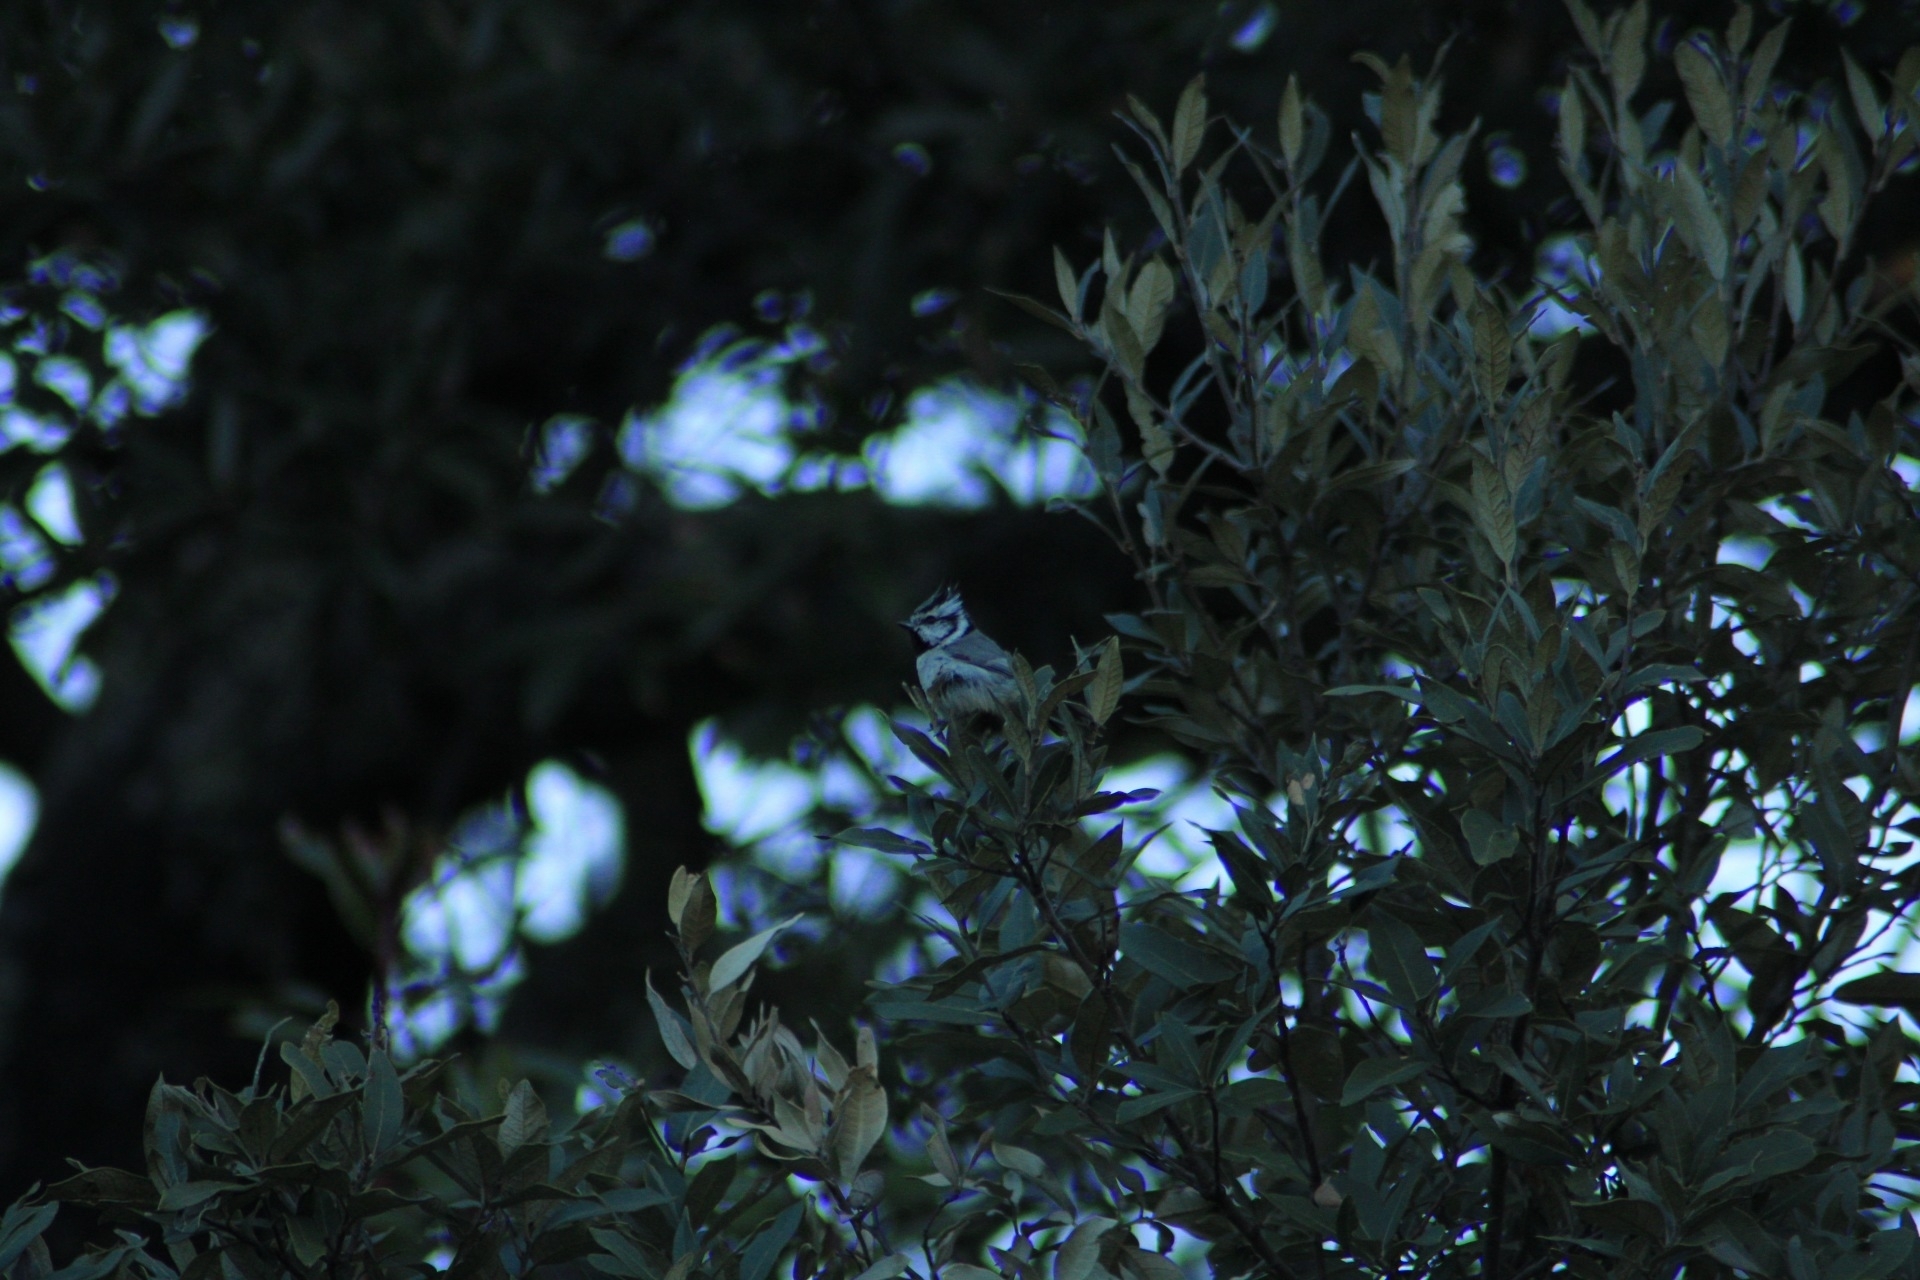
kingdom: Animalia
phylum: Chordata
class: Aves
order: Passeriformes
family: Paridae
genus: Baeolophus
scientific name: Baeolophus wollweberi
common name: Bridled titmouse
